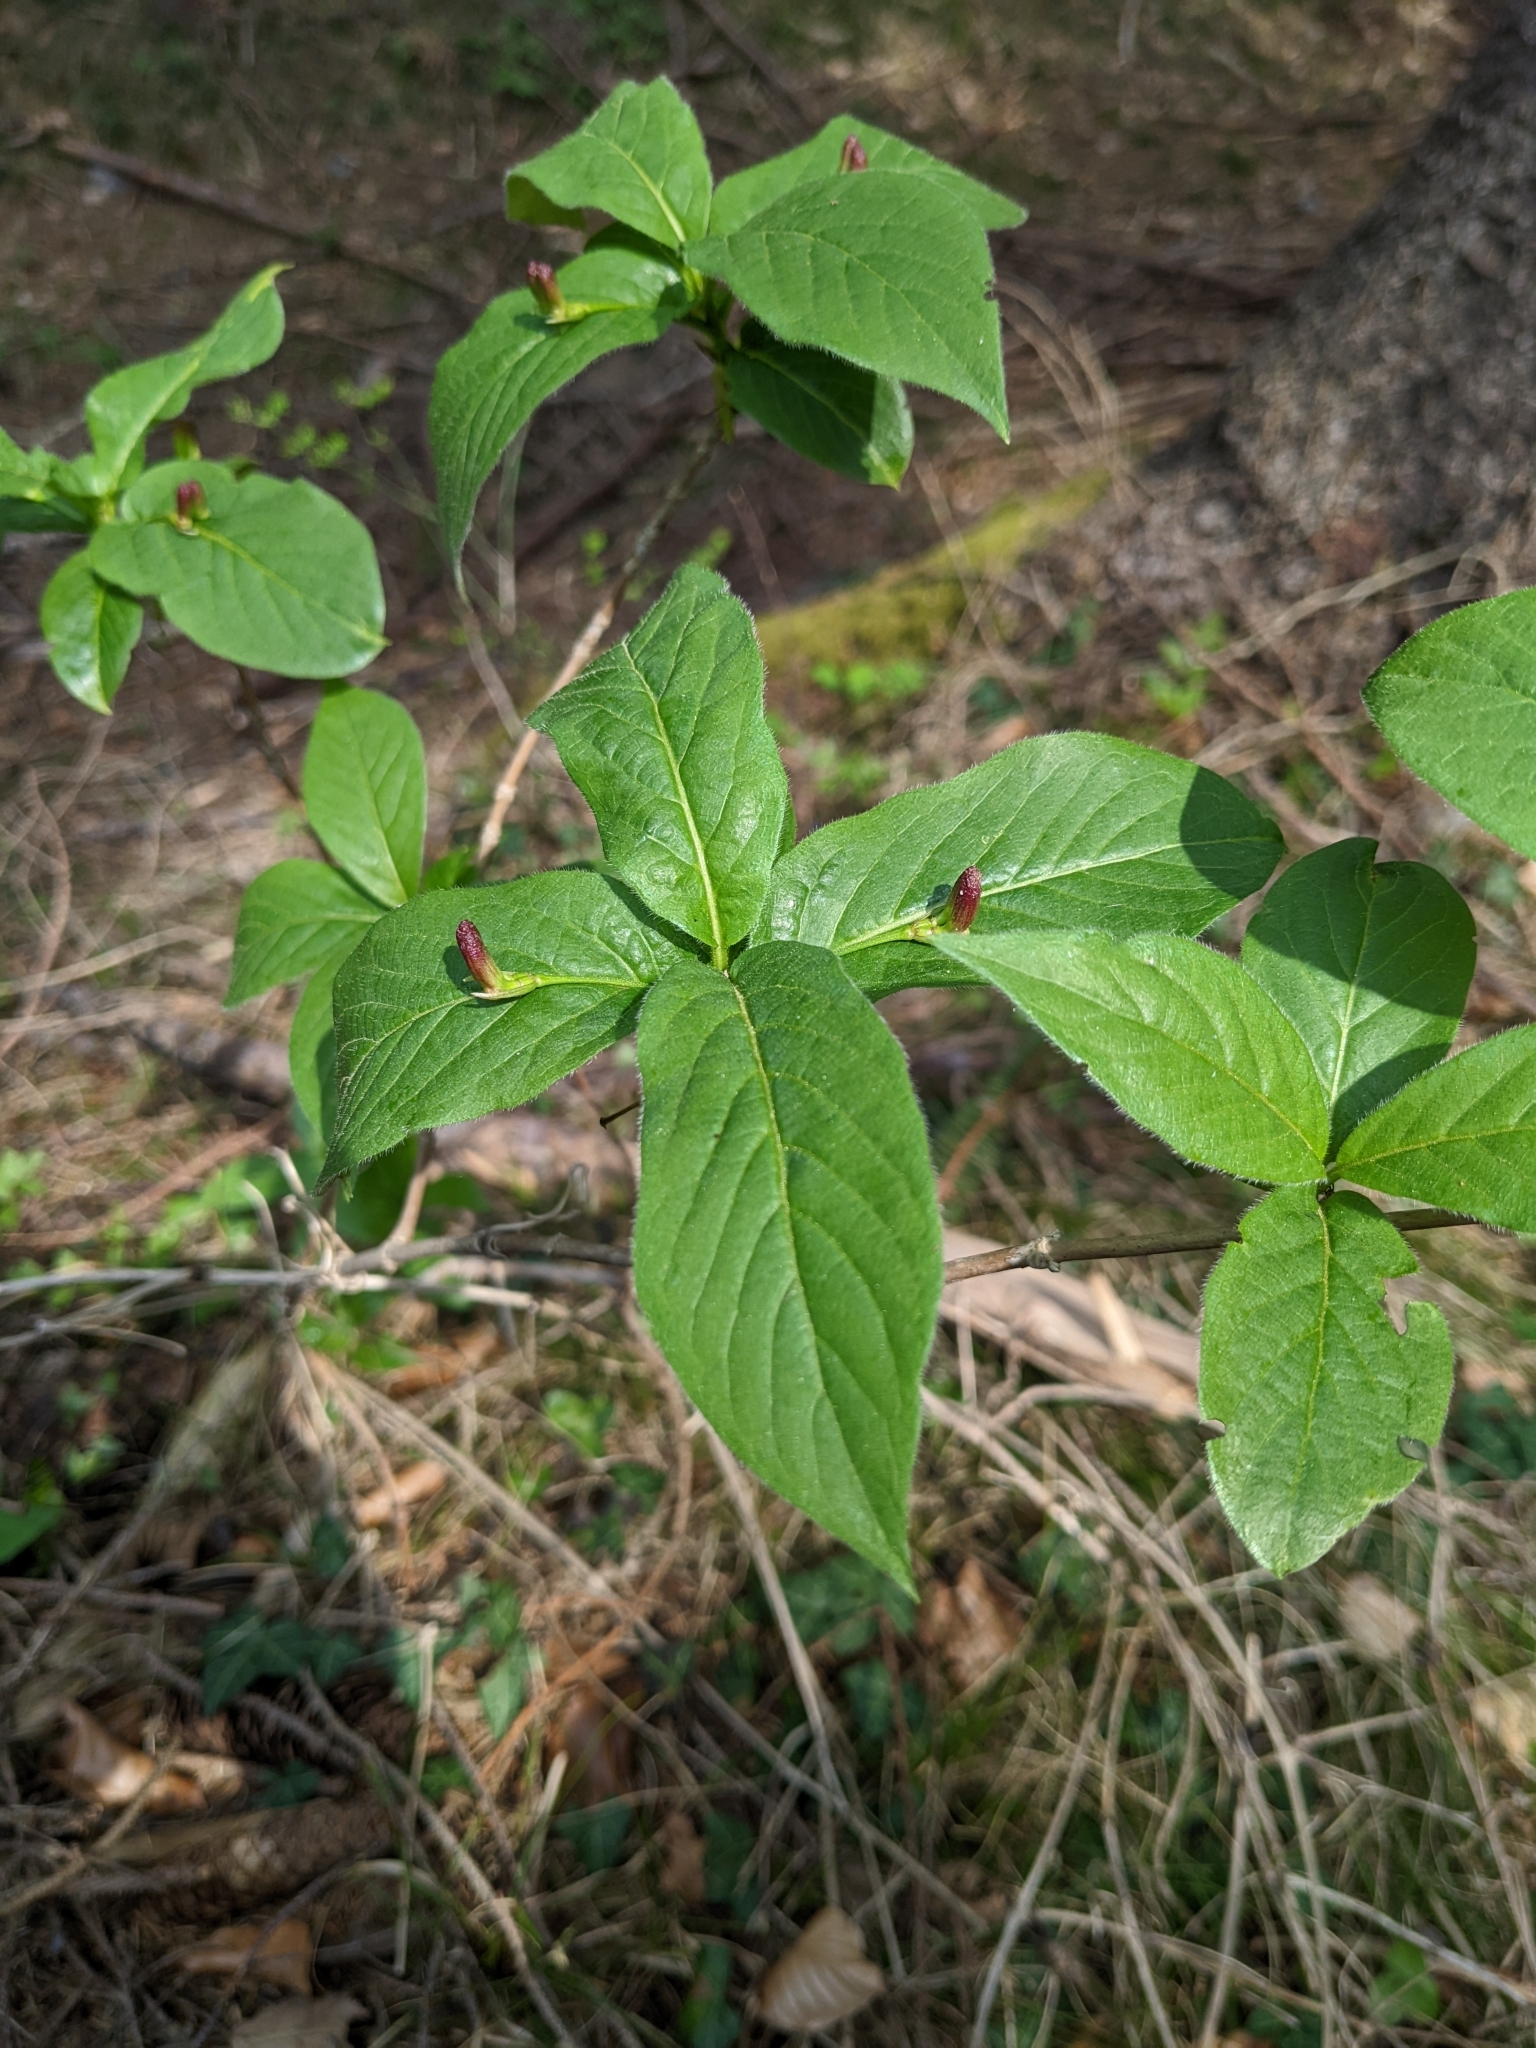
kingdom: Plantae
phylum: Tracheophyta
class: Magnoliopsida
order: Dipsacales
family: Caprifoliaceae
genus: Lonicera
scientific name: Lonicera alpigena
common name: Alpine honeysuckle
